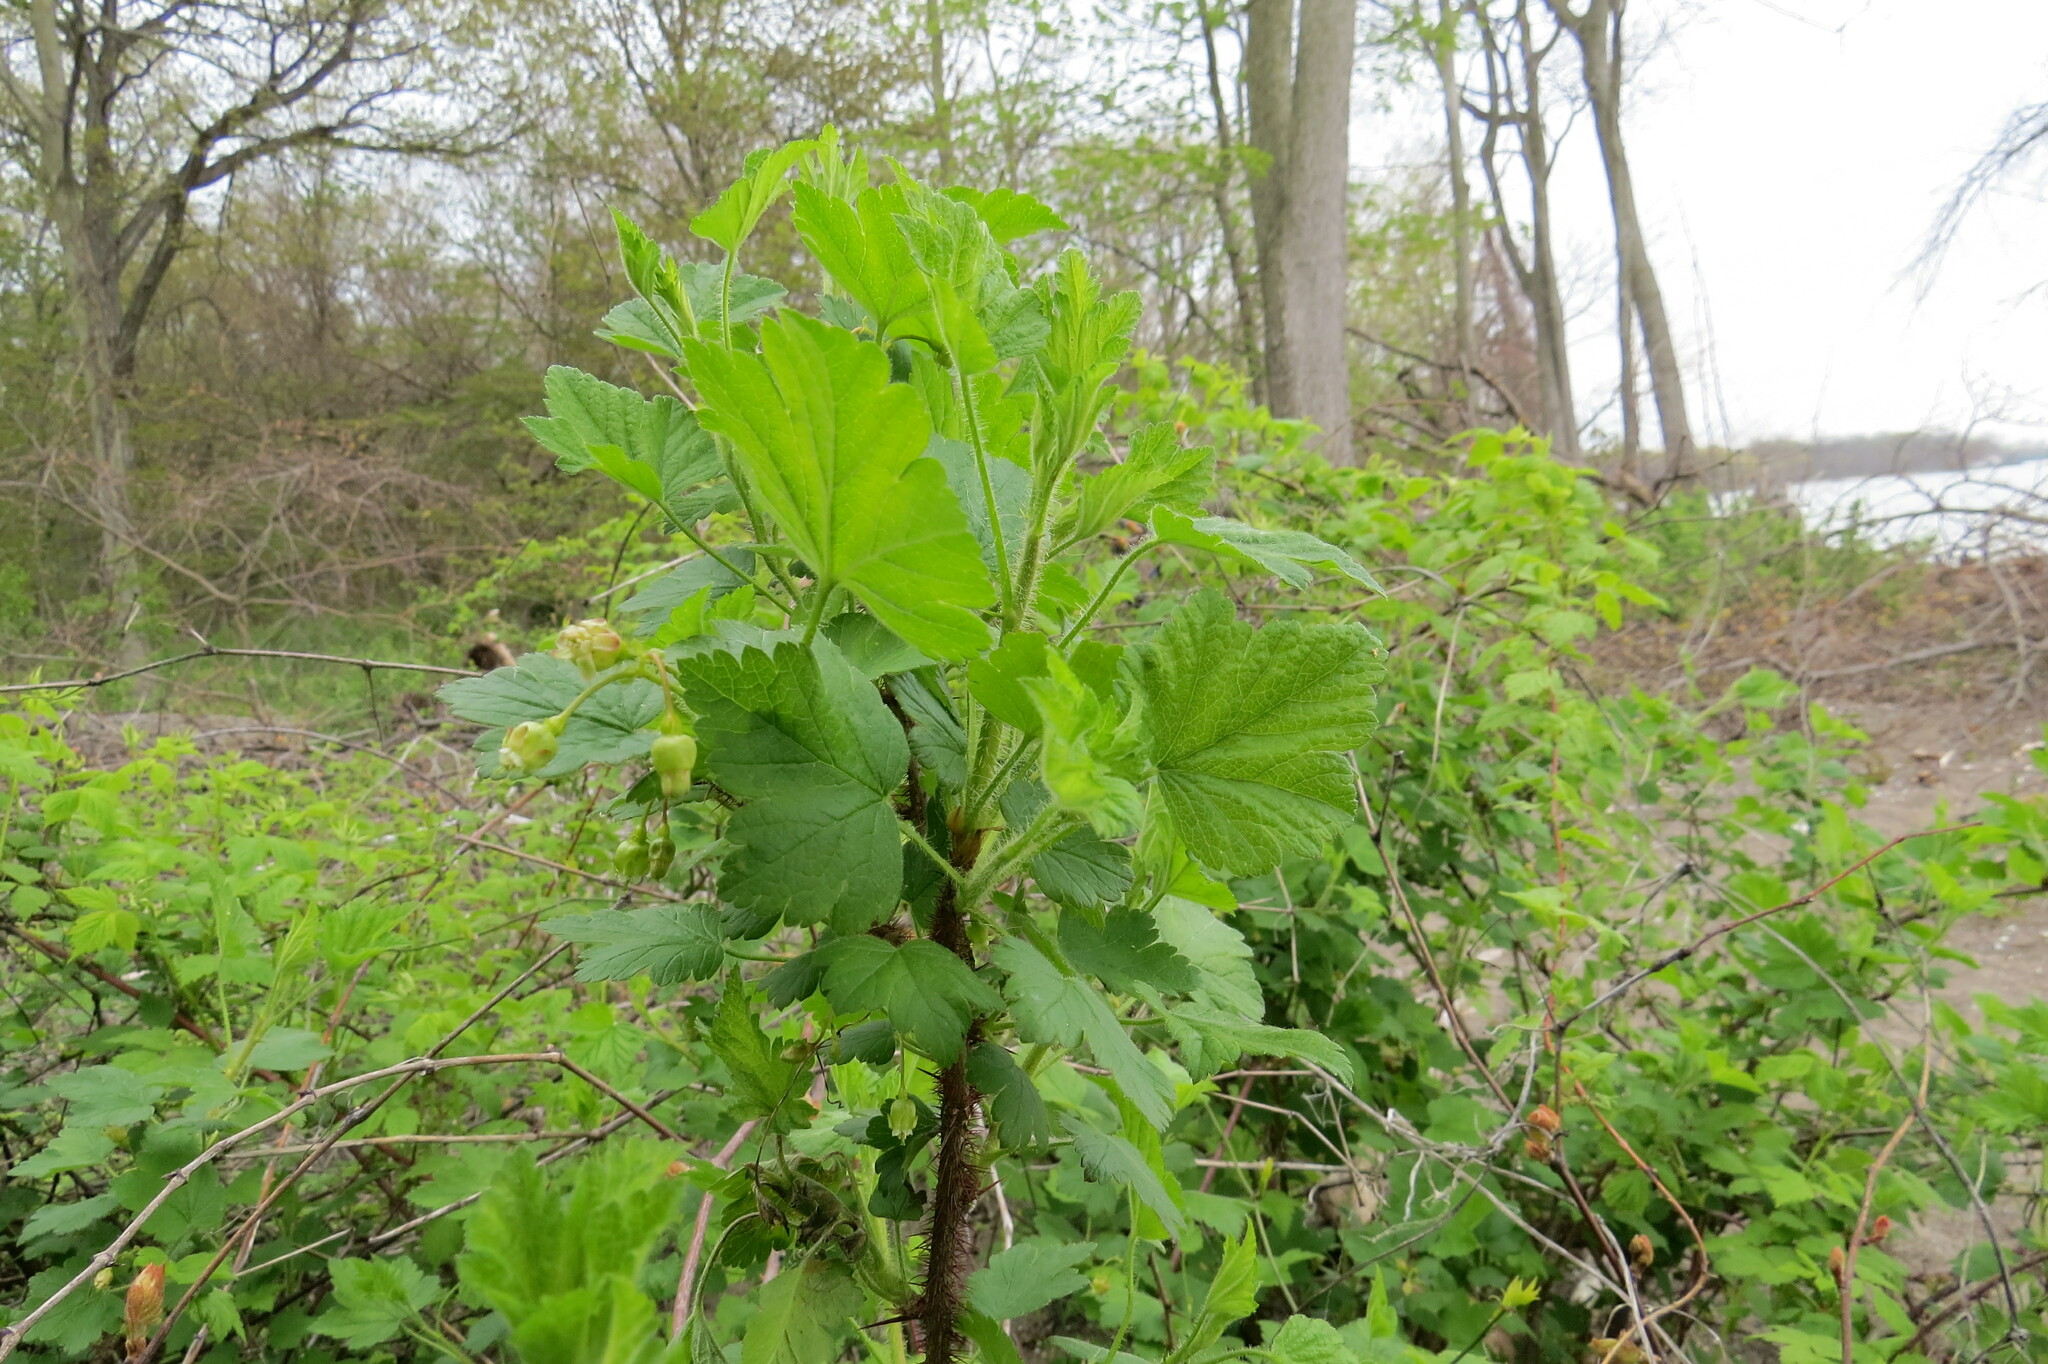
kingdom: Plantae
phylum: Tracheophyta
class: Magnoliopsida
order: Saxifragales
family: Grossulariaceae
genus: Ribes
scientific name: Ribes cynosbati
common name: American gooseberry
